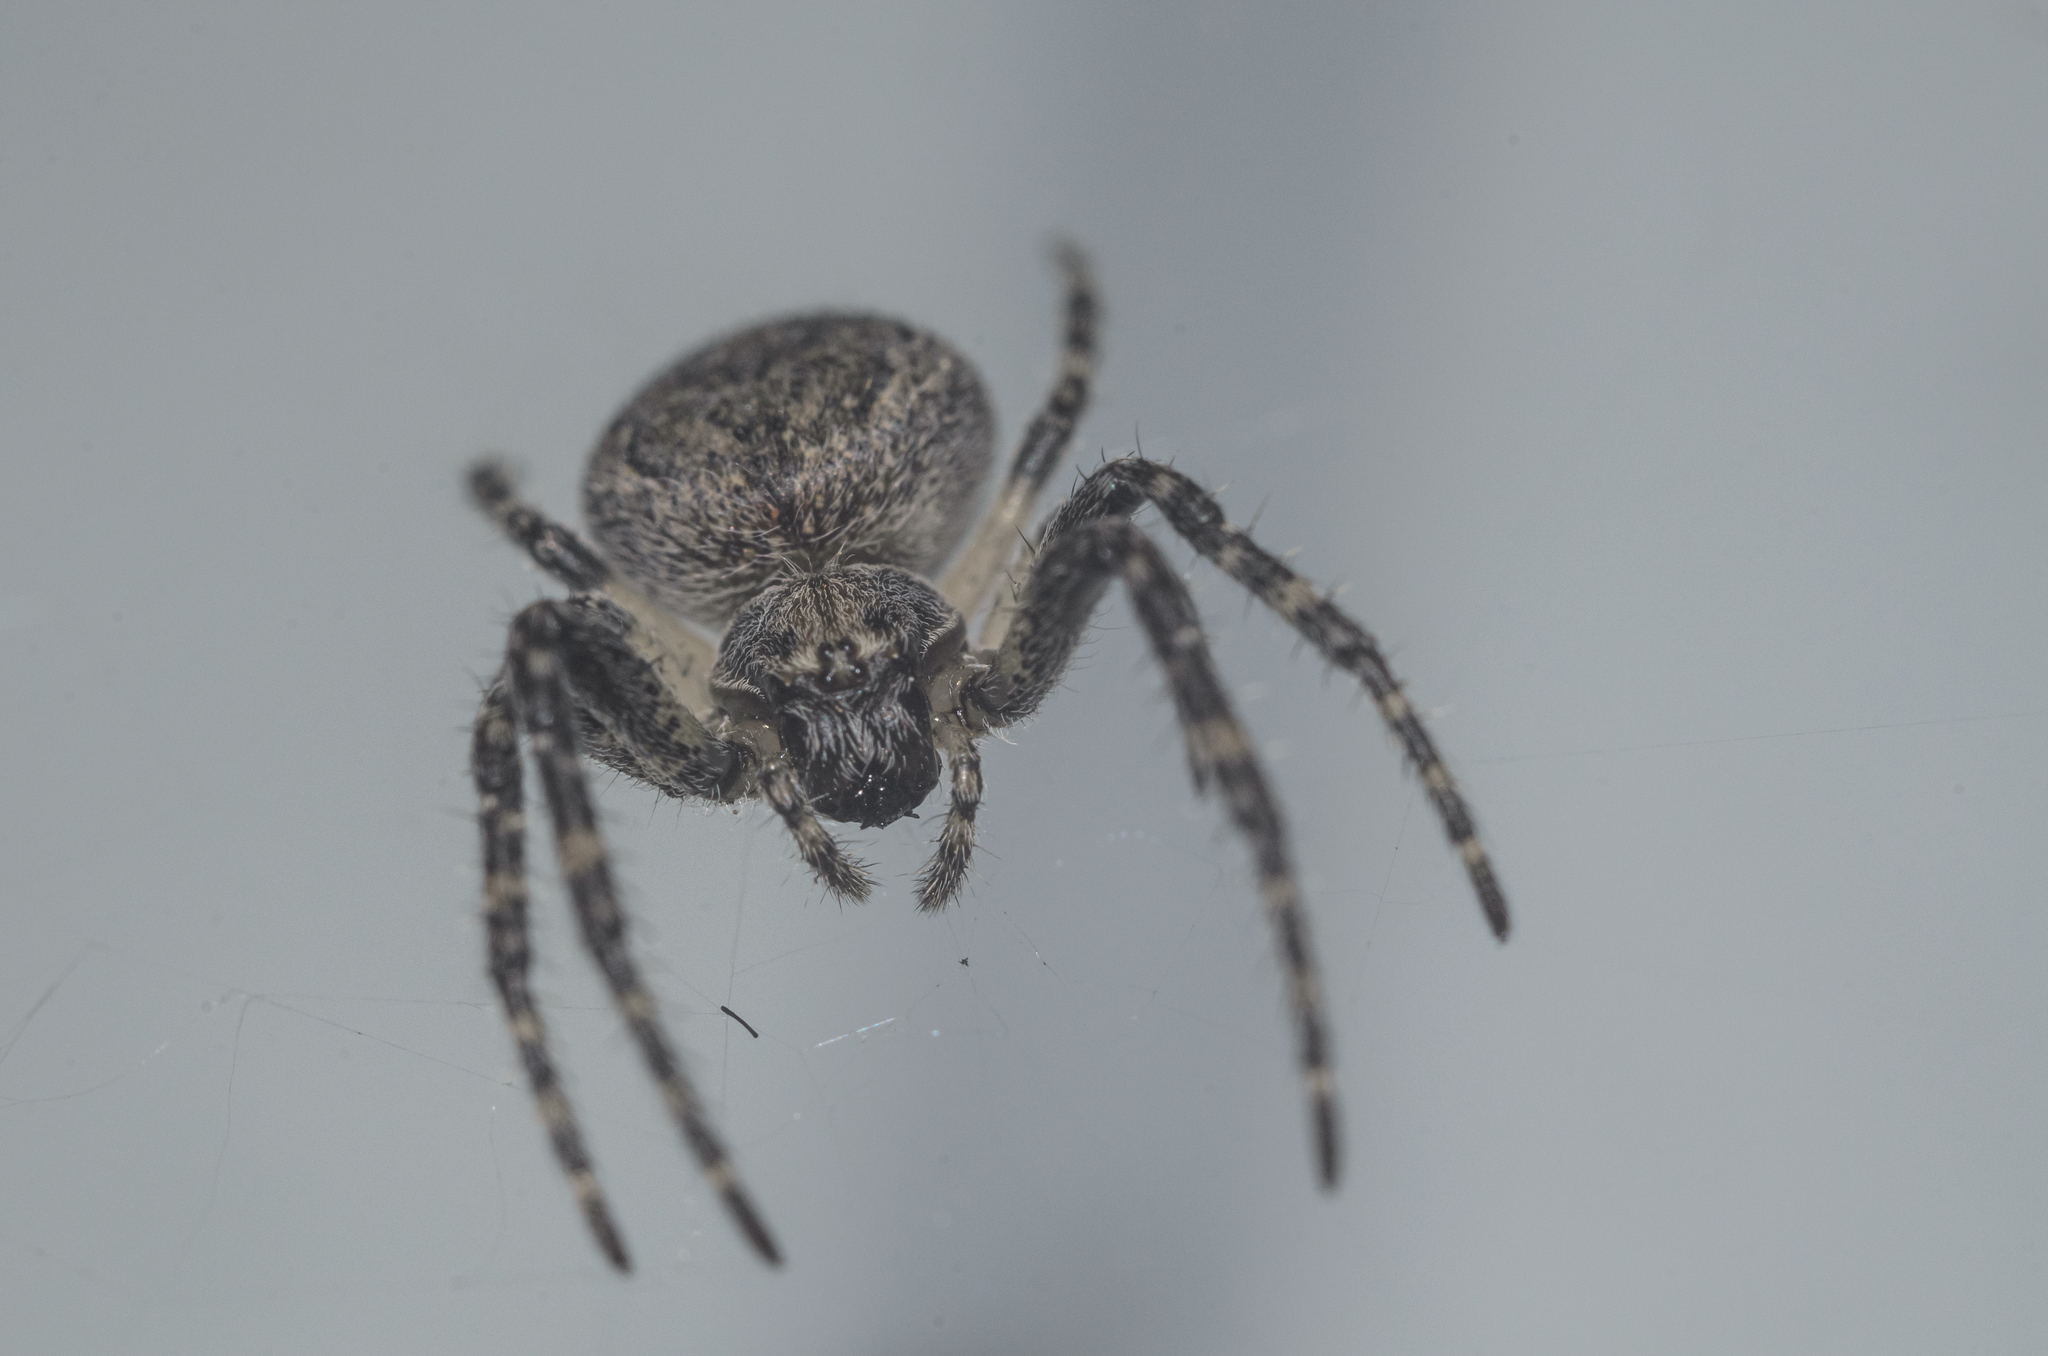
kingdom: Animalia
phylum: Arthropoda
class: Arachnida
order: Araneae
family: Araneidae
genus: Larinioides
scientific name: Larinioides ixobolus
